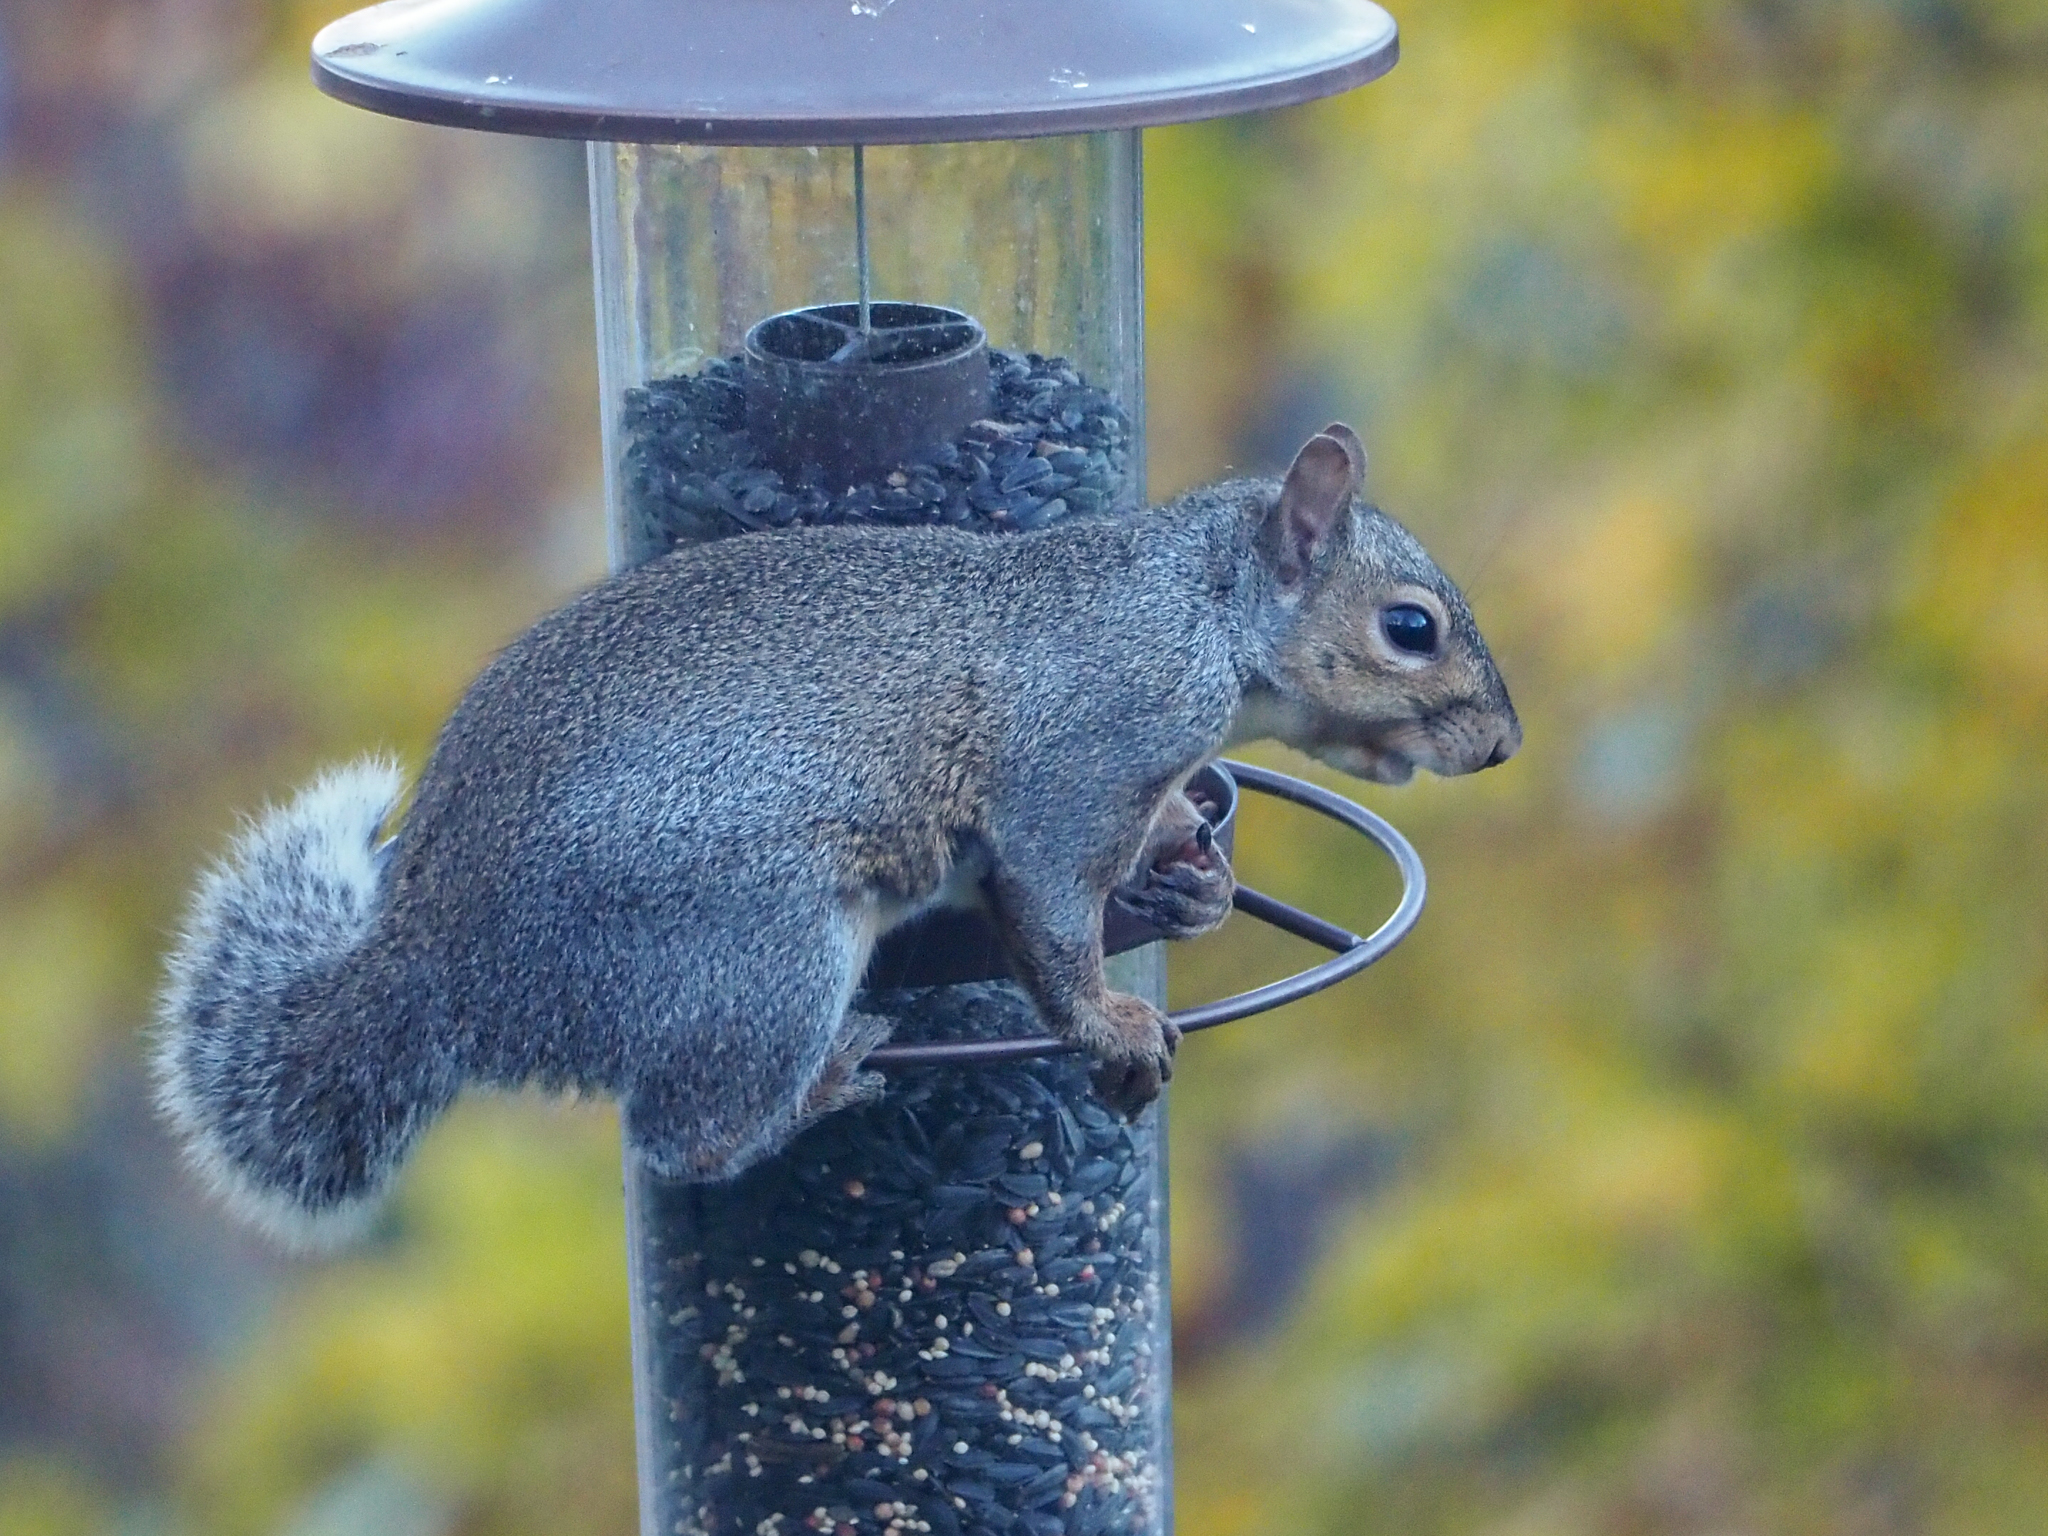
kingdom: Animalia
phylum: Chordata
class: Mammalia
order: Rodentia
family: Sciuridae
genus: Sciurus
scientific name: Sciurus carolinensis
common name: Eastern gray squirrel
